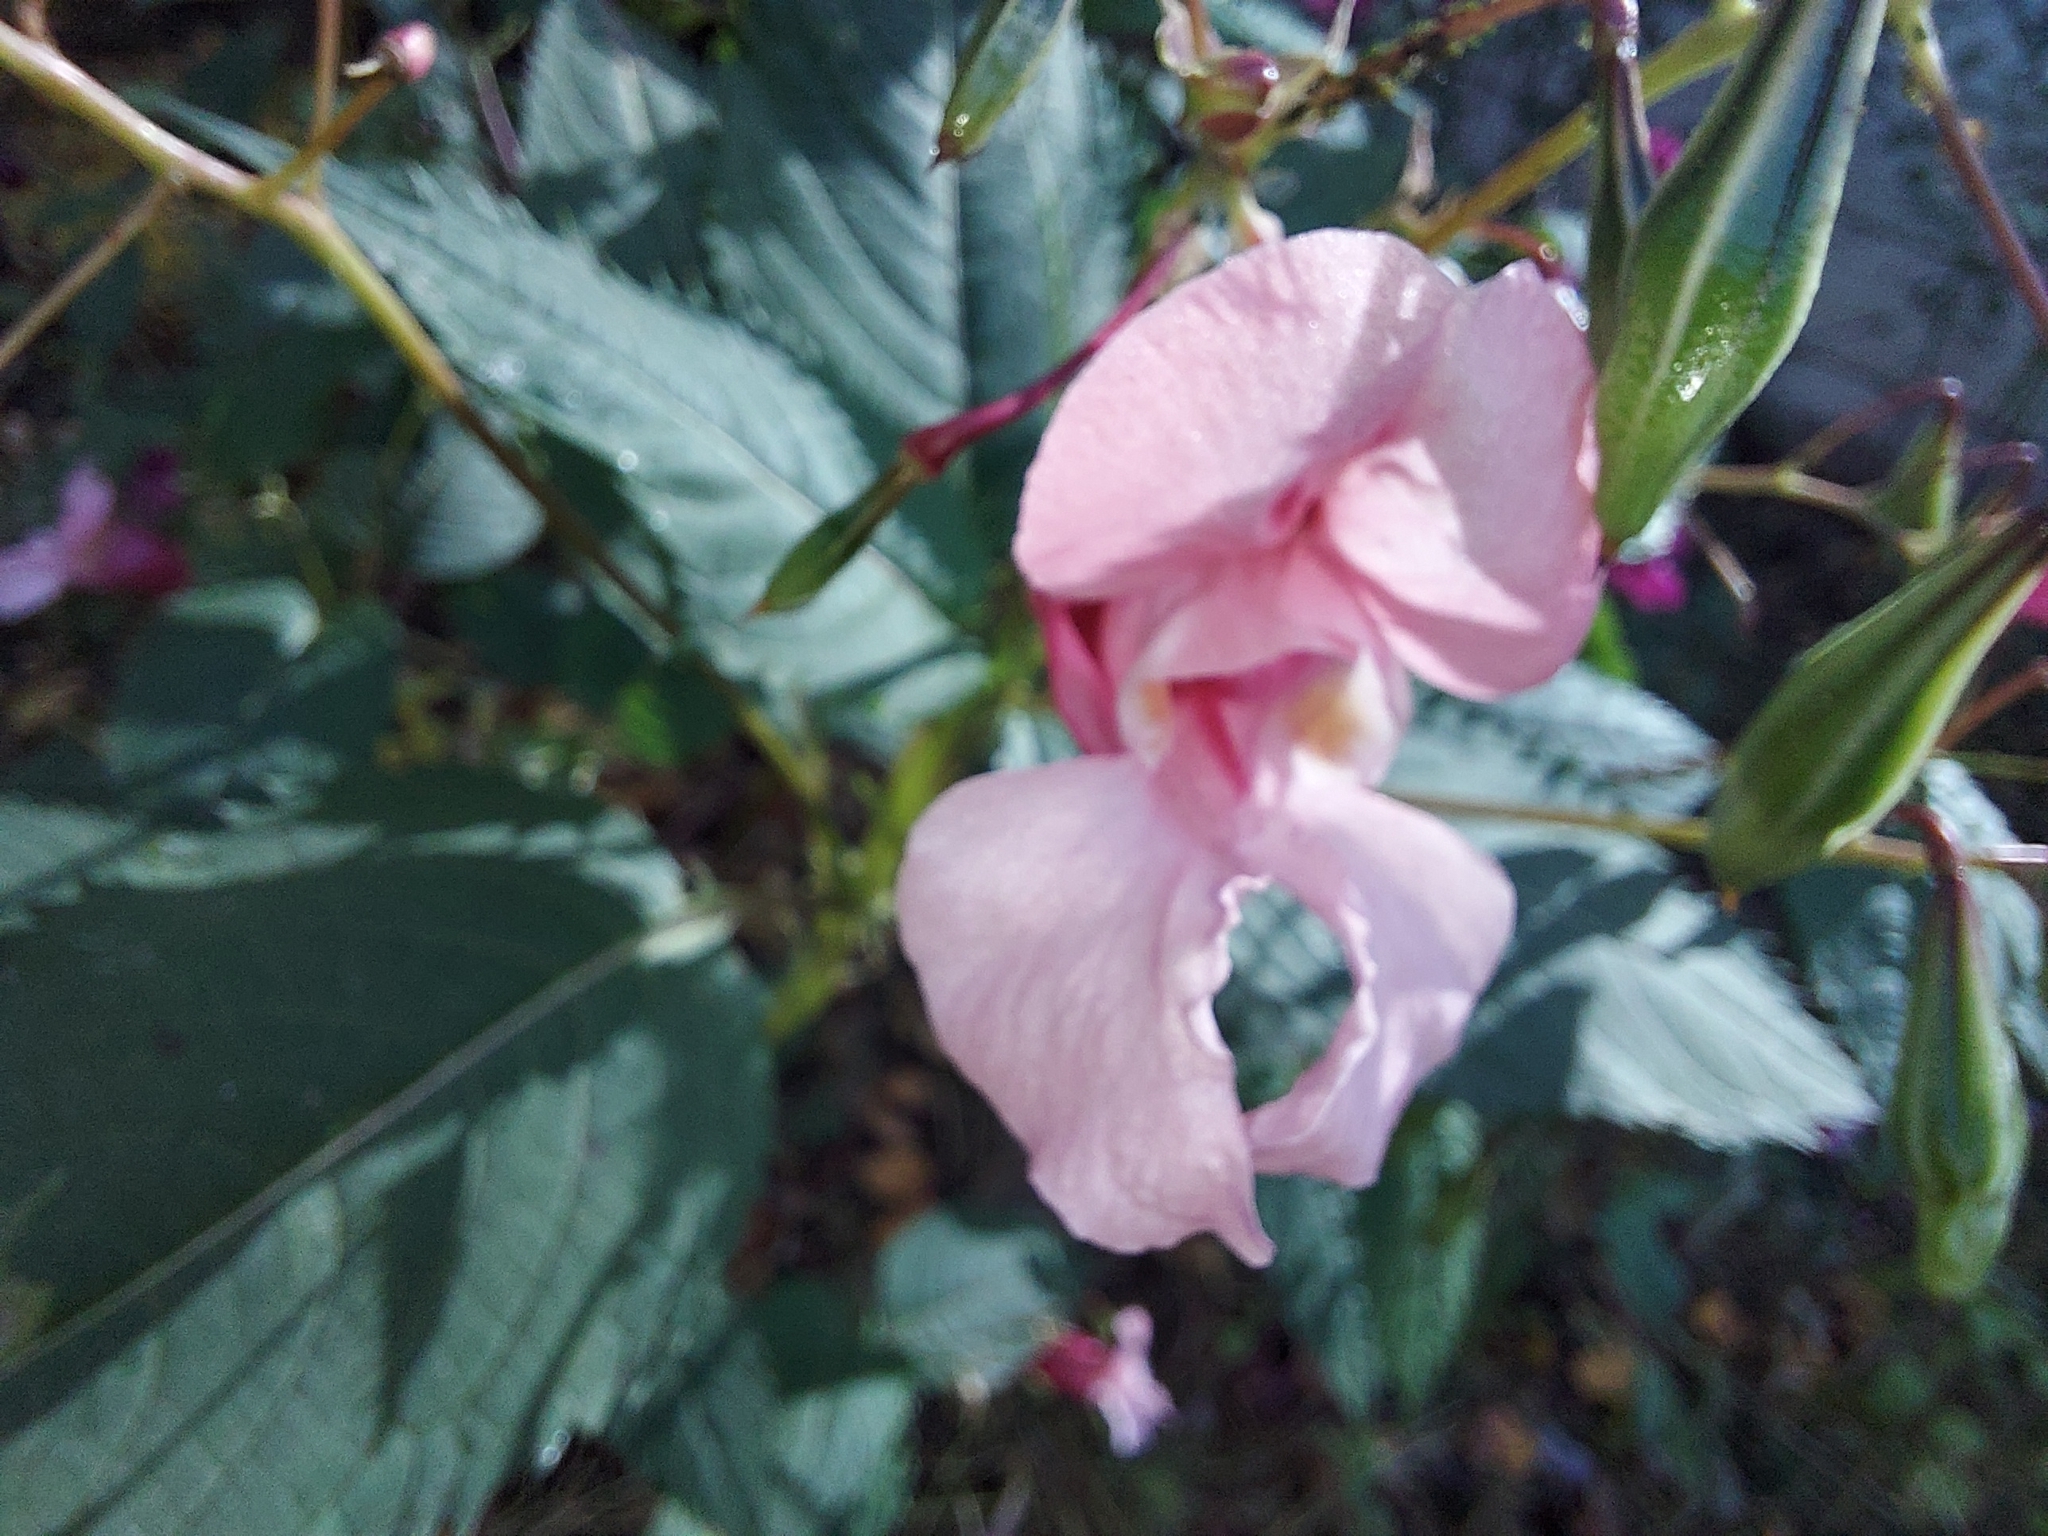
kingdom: Plantae
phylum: Tracheophyta
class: Magnoliopsida
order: Ericales
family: Balsaminaceae
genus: Impatiens
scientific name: Impatiens glandulifera
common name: Himalayan balsam
